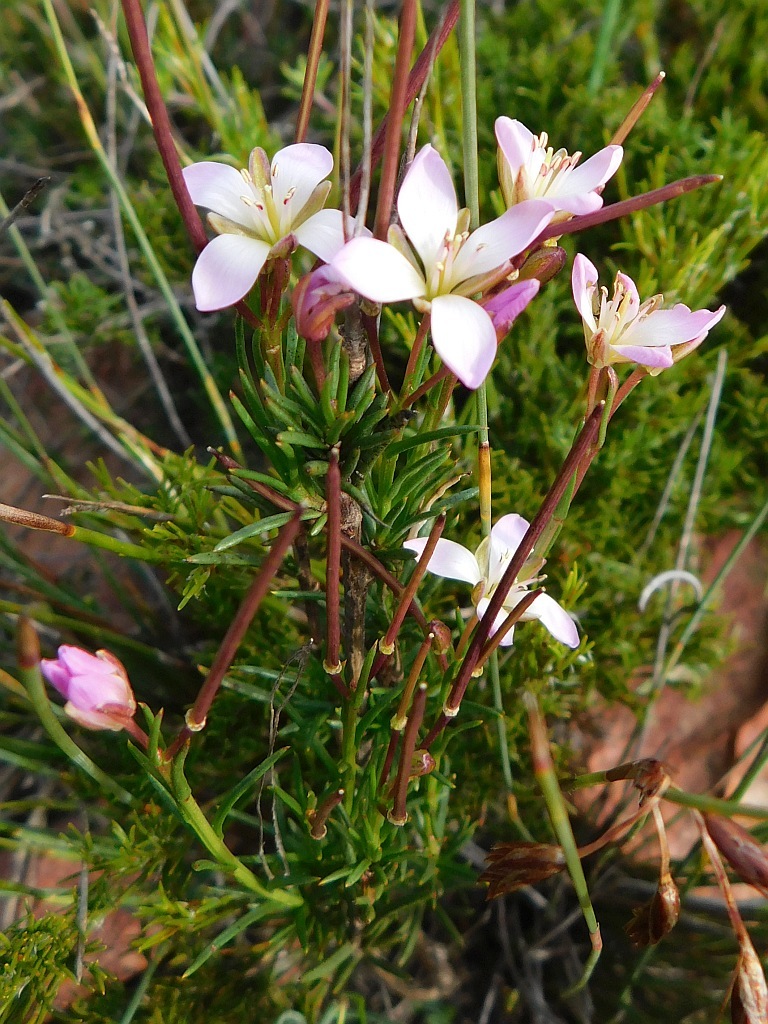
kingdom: Plantae
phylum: Tracheophyta
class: Magnoliopsida
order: Brassicales
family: Brassicaceae
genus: Heliophila
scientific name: Heliophila scoparia
